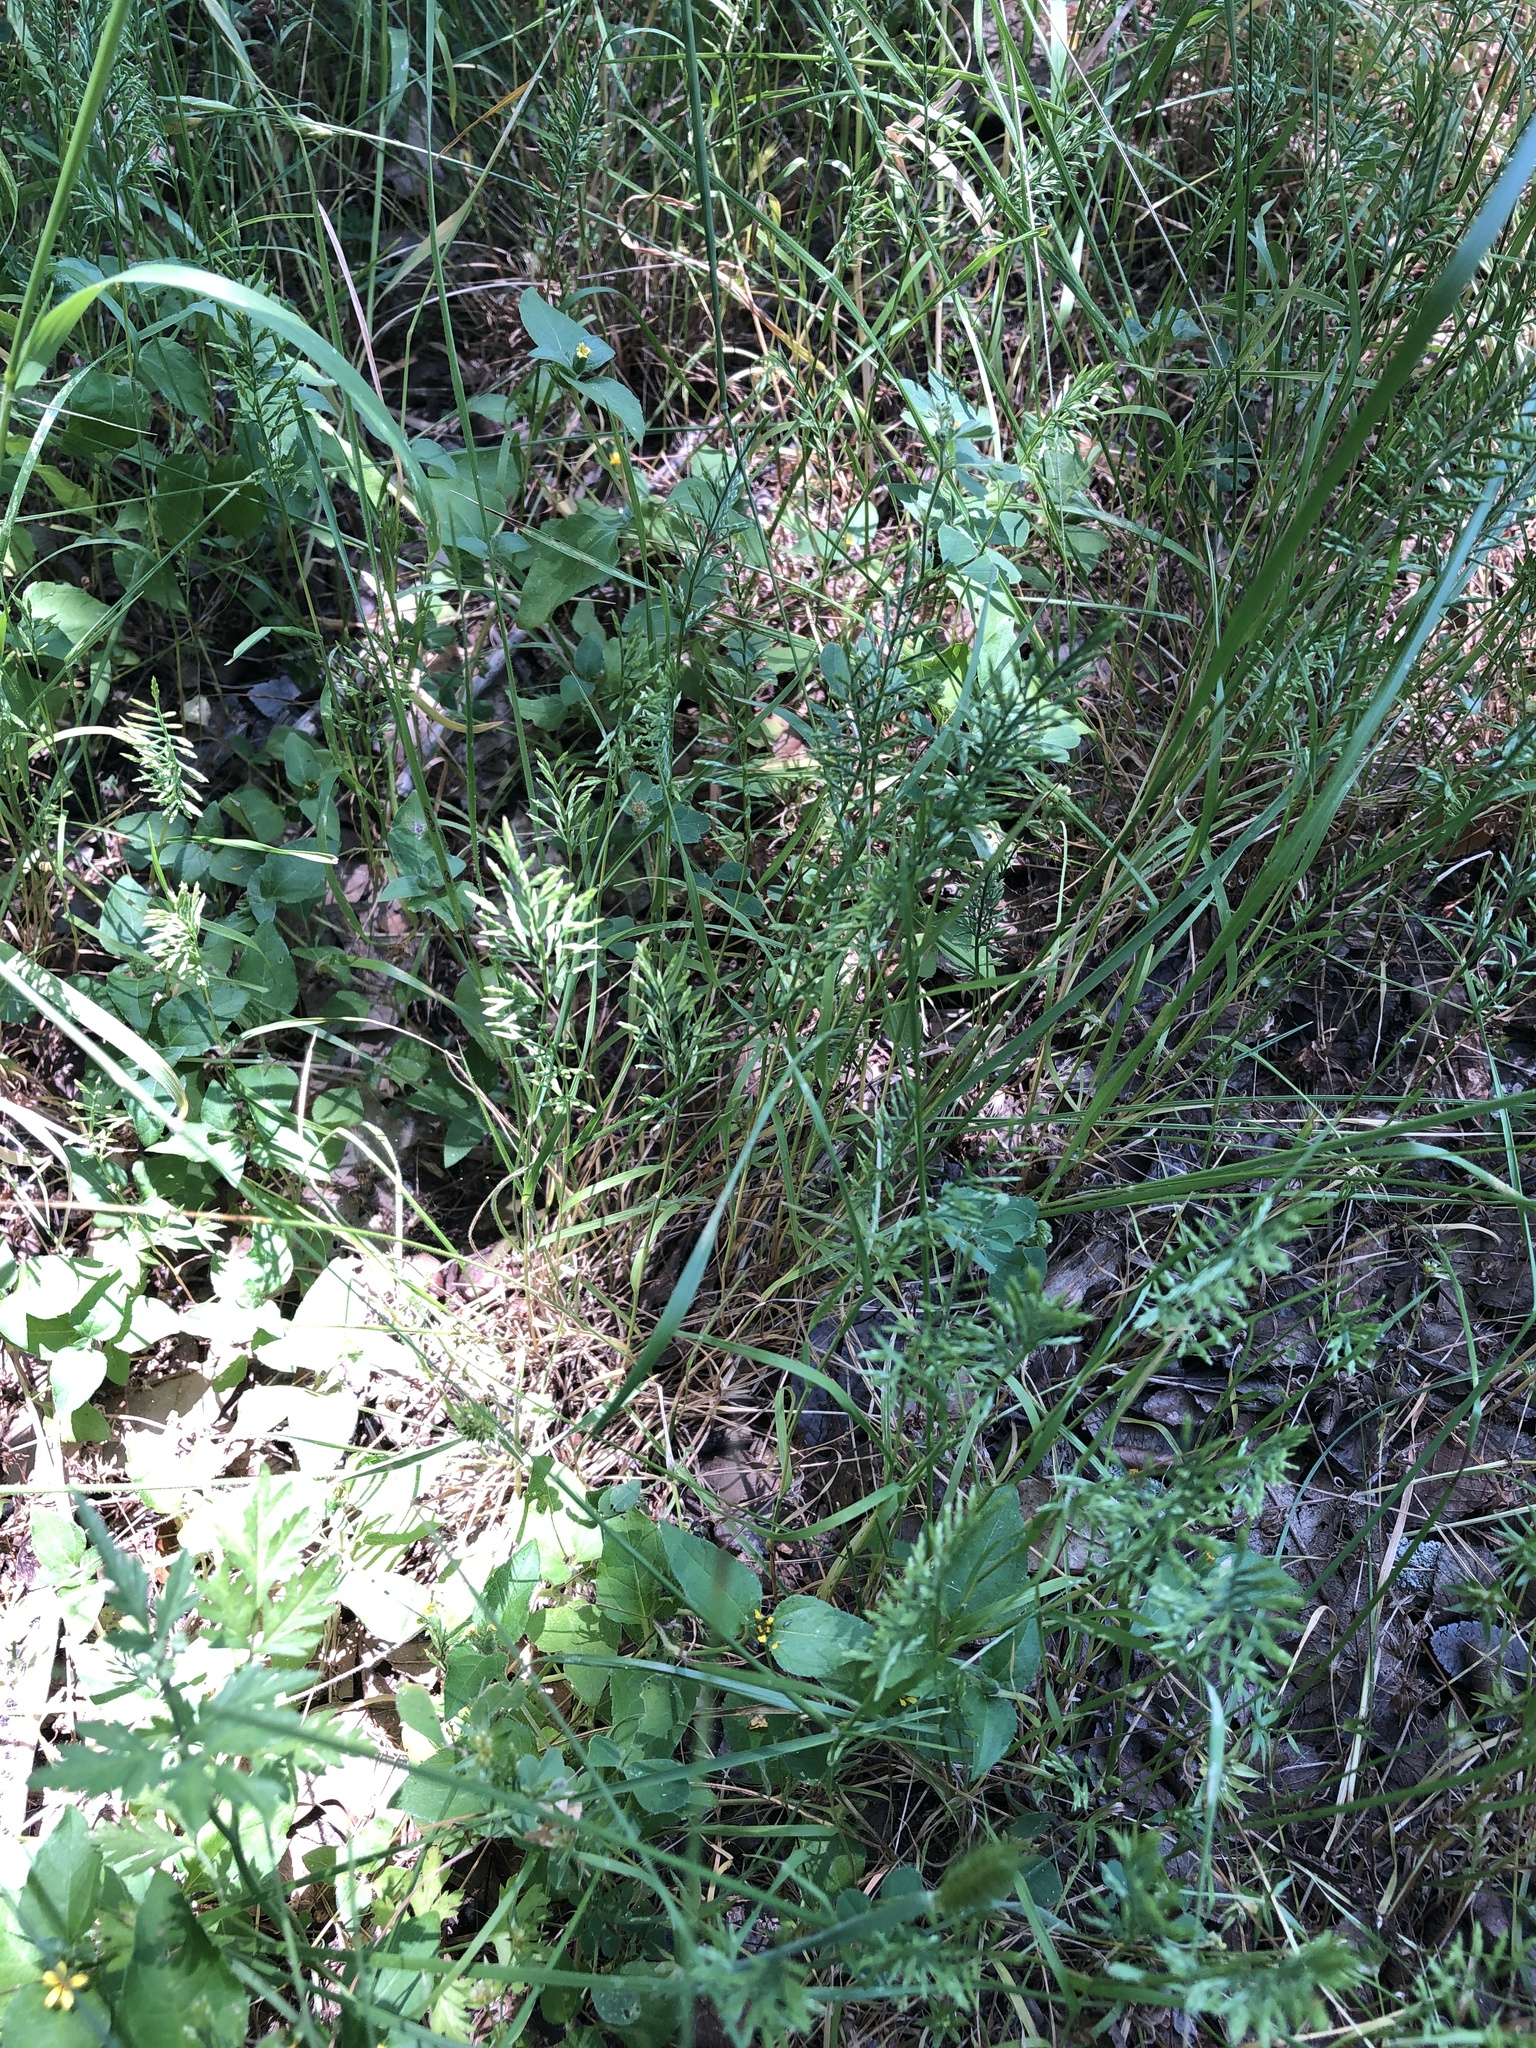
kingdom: Plantae
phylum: Tracheophyta
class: Liliopsida
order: Poales
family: Poaceae
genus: Catapodium
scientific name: Catapodium rigidum
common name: Fern-grass
